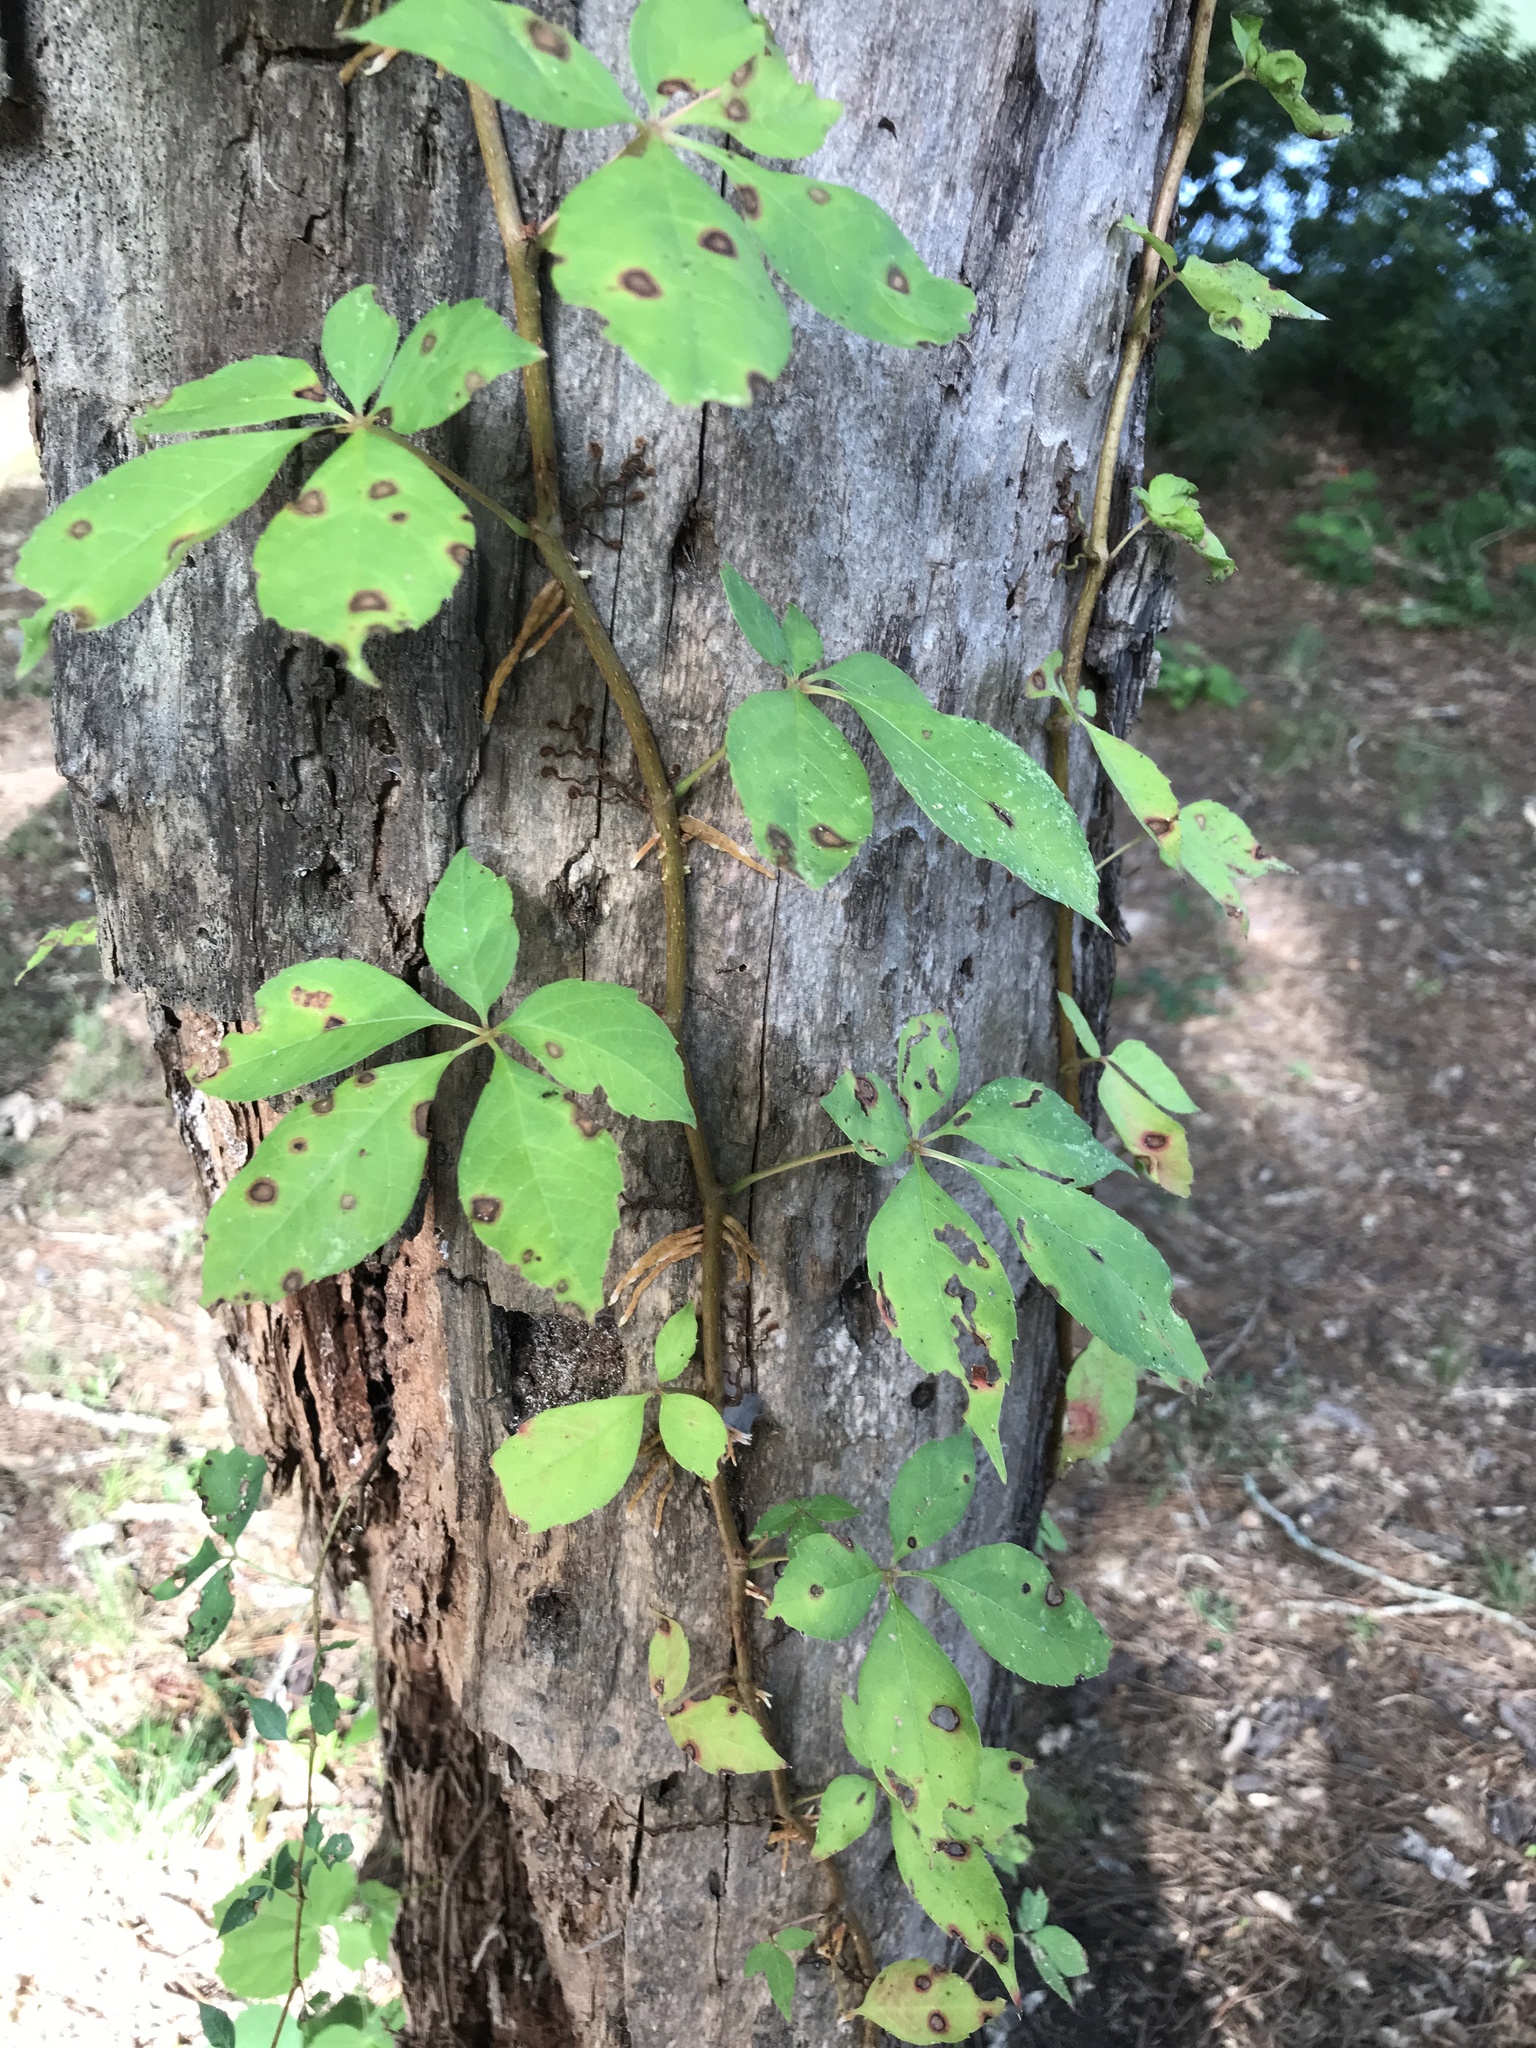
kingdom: Plantae
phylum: Tracheophyta
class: Magnoliopsida
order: Vitales
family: Vitaceae
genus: Parthenocissus
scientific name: Parthenocissus quinquefolia
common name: Virginia-creeper
